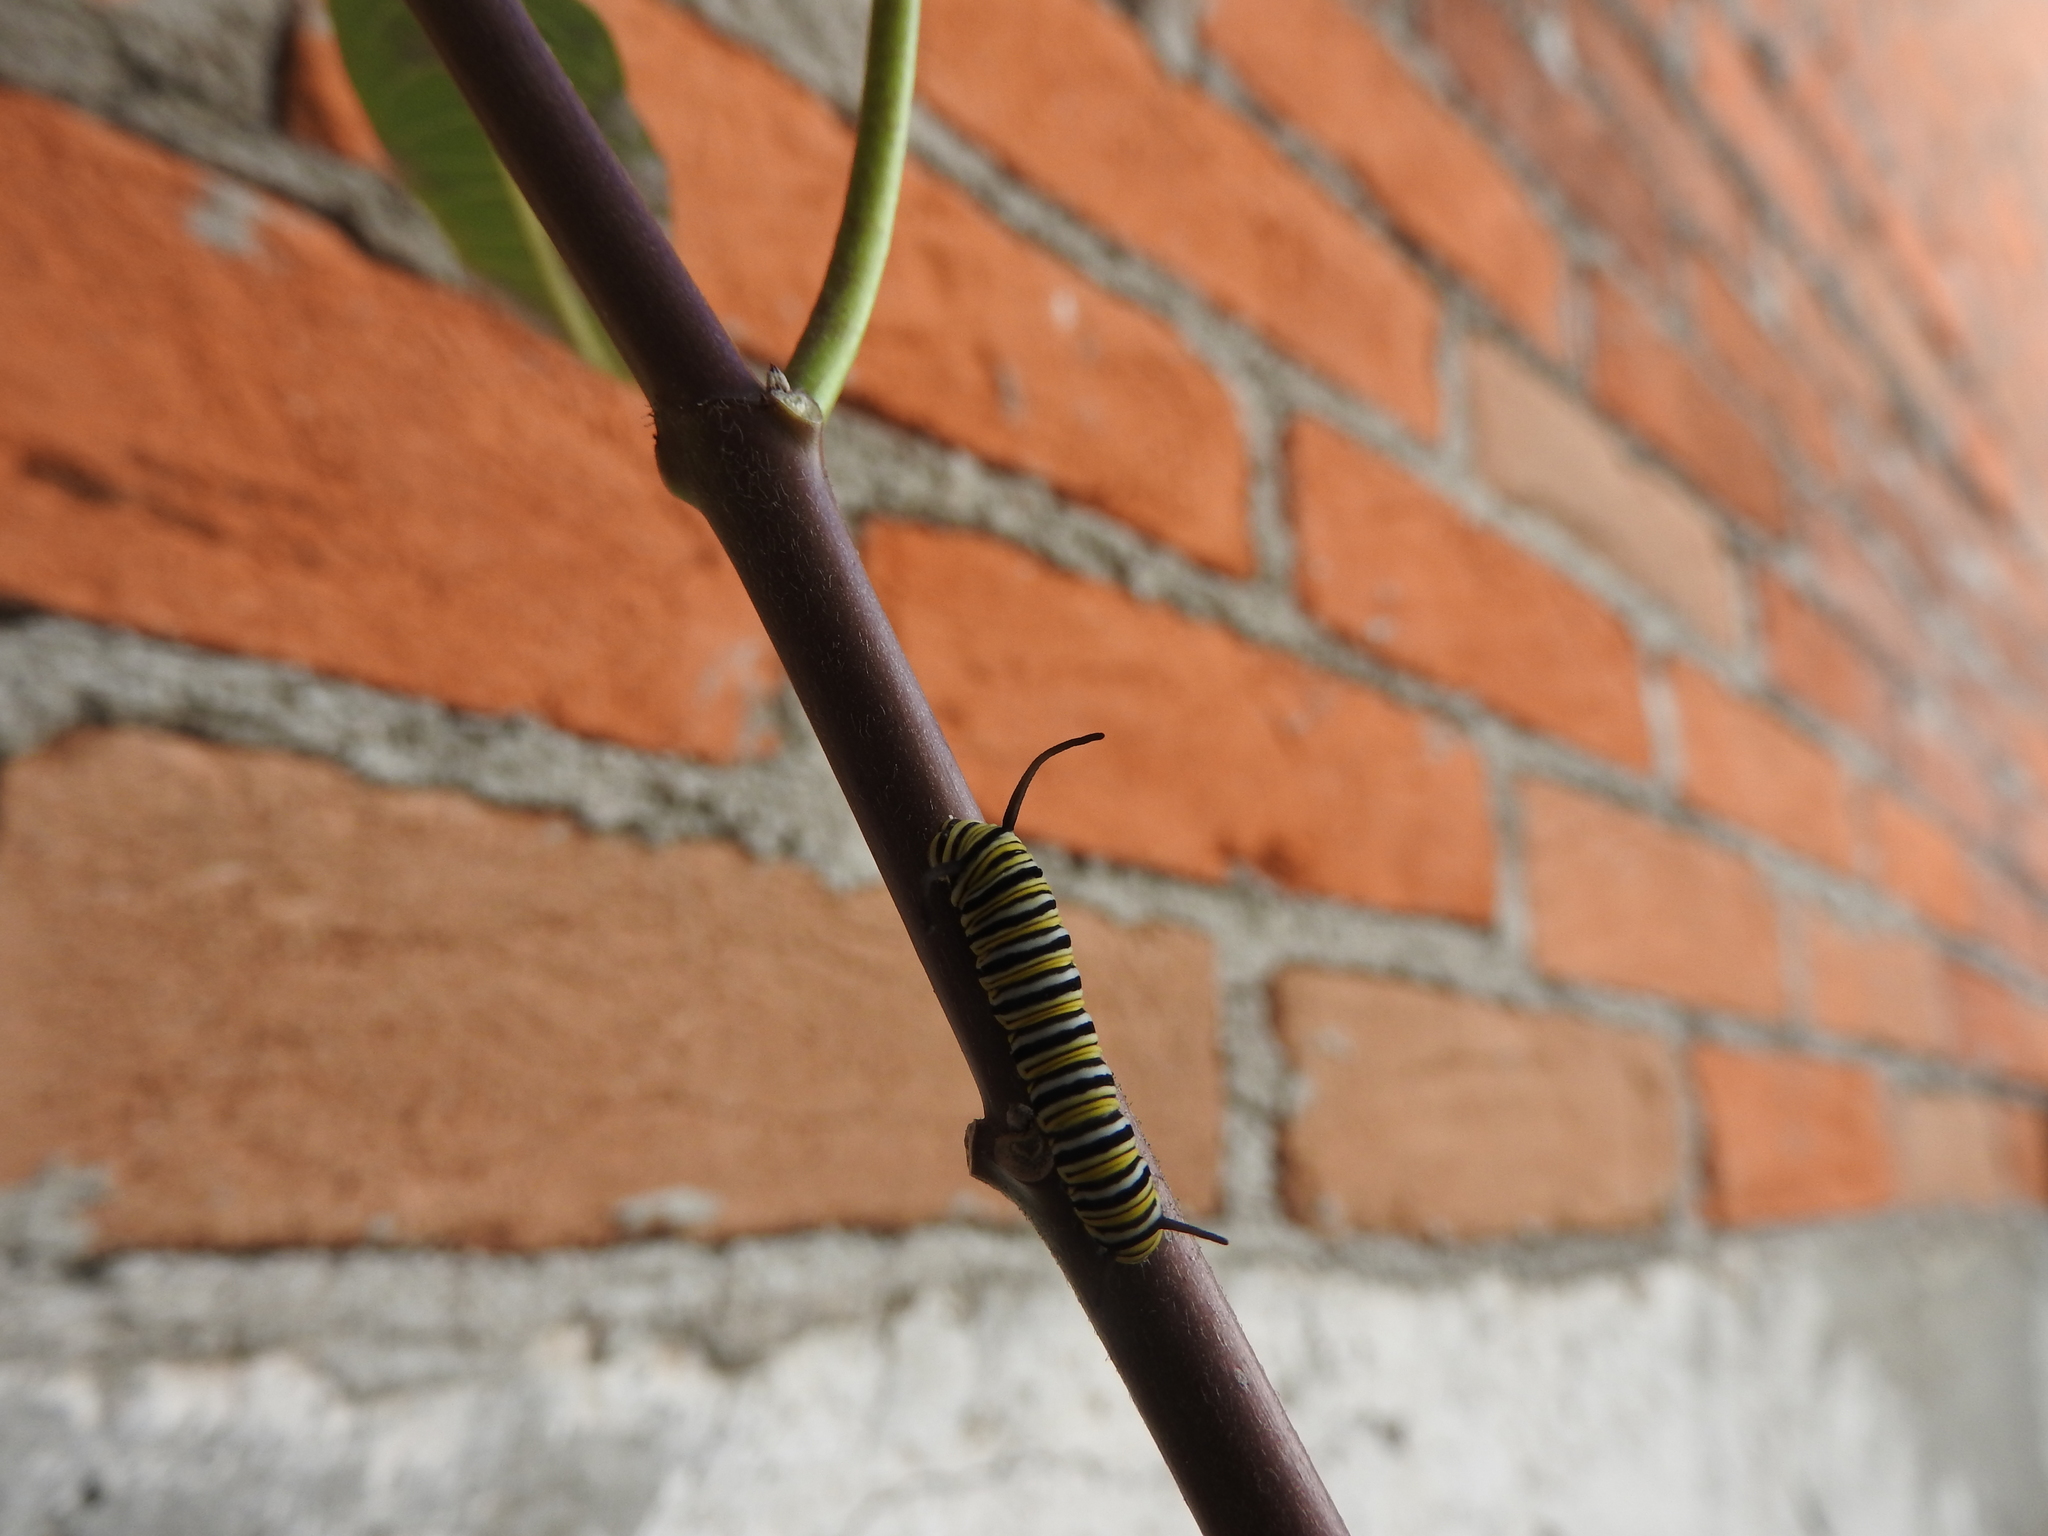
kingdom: Animalia
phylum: Arthropoda
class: Insecta
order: Lepidoptera
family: Nymphalidae
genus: Danaus
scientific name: Danaus plexippus
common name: Monarch
